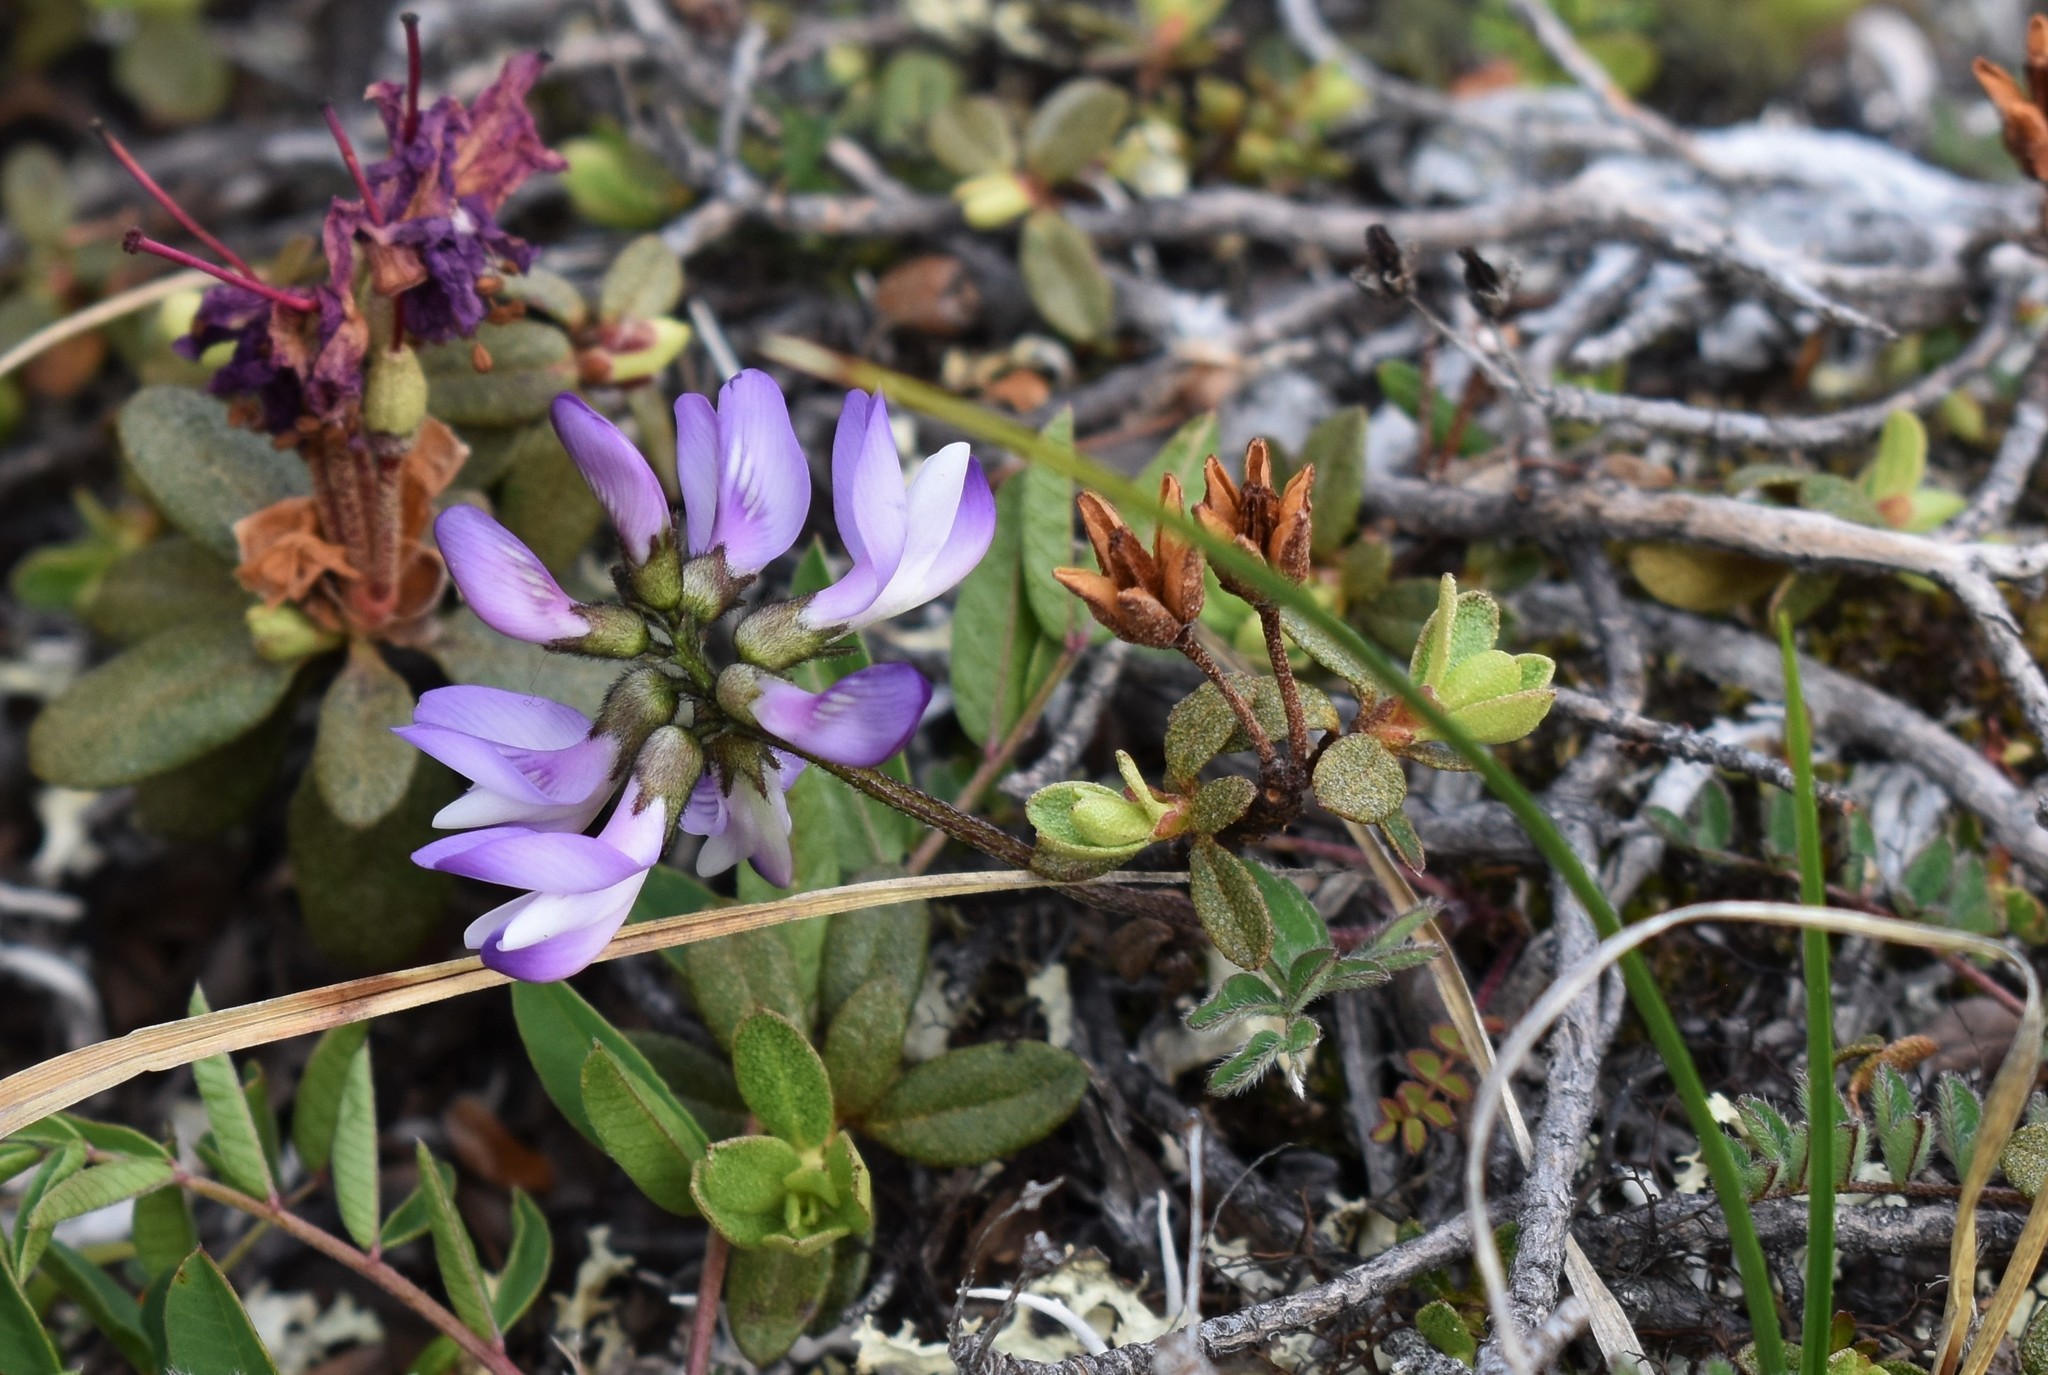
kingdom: Plantae
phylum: Tracheophyta
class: Magnoliopsida
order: Fabales
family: Fabaceae
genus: Astragalus
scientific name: Astragalus alpinus
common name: Alpine milk-vetch
